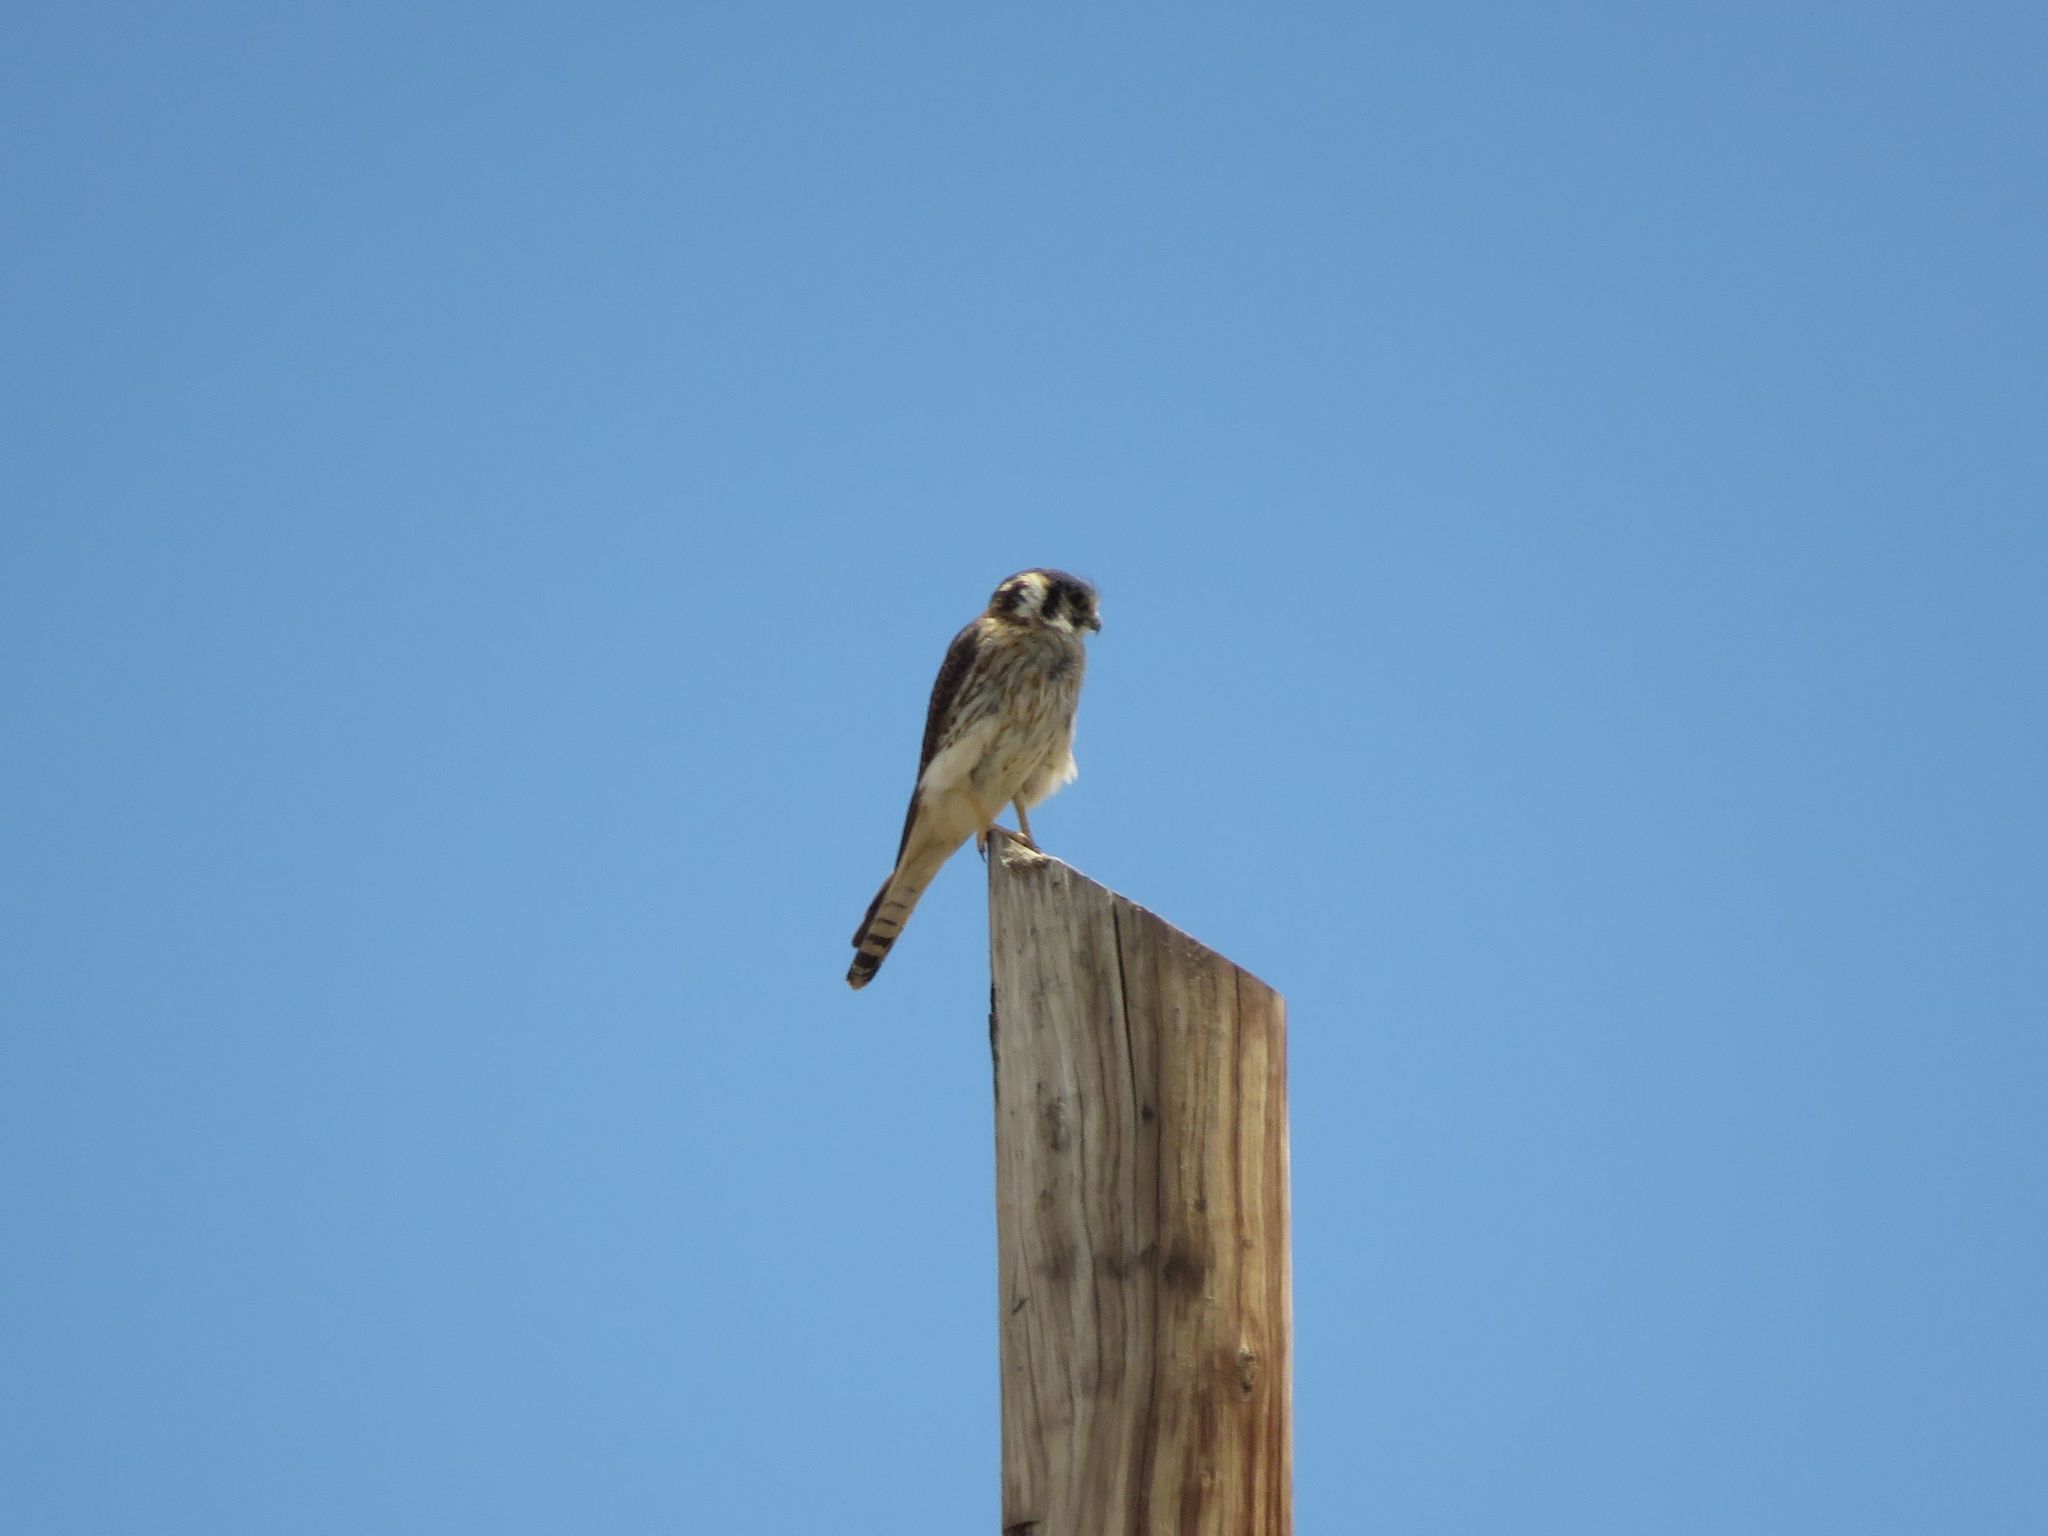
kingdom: Animalia
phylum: Chordata
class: Aves
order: Falconiformes
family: Falconidae
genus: Falco
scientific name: Falco sparverius
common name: American kestrel
